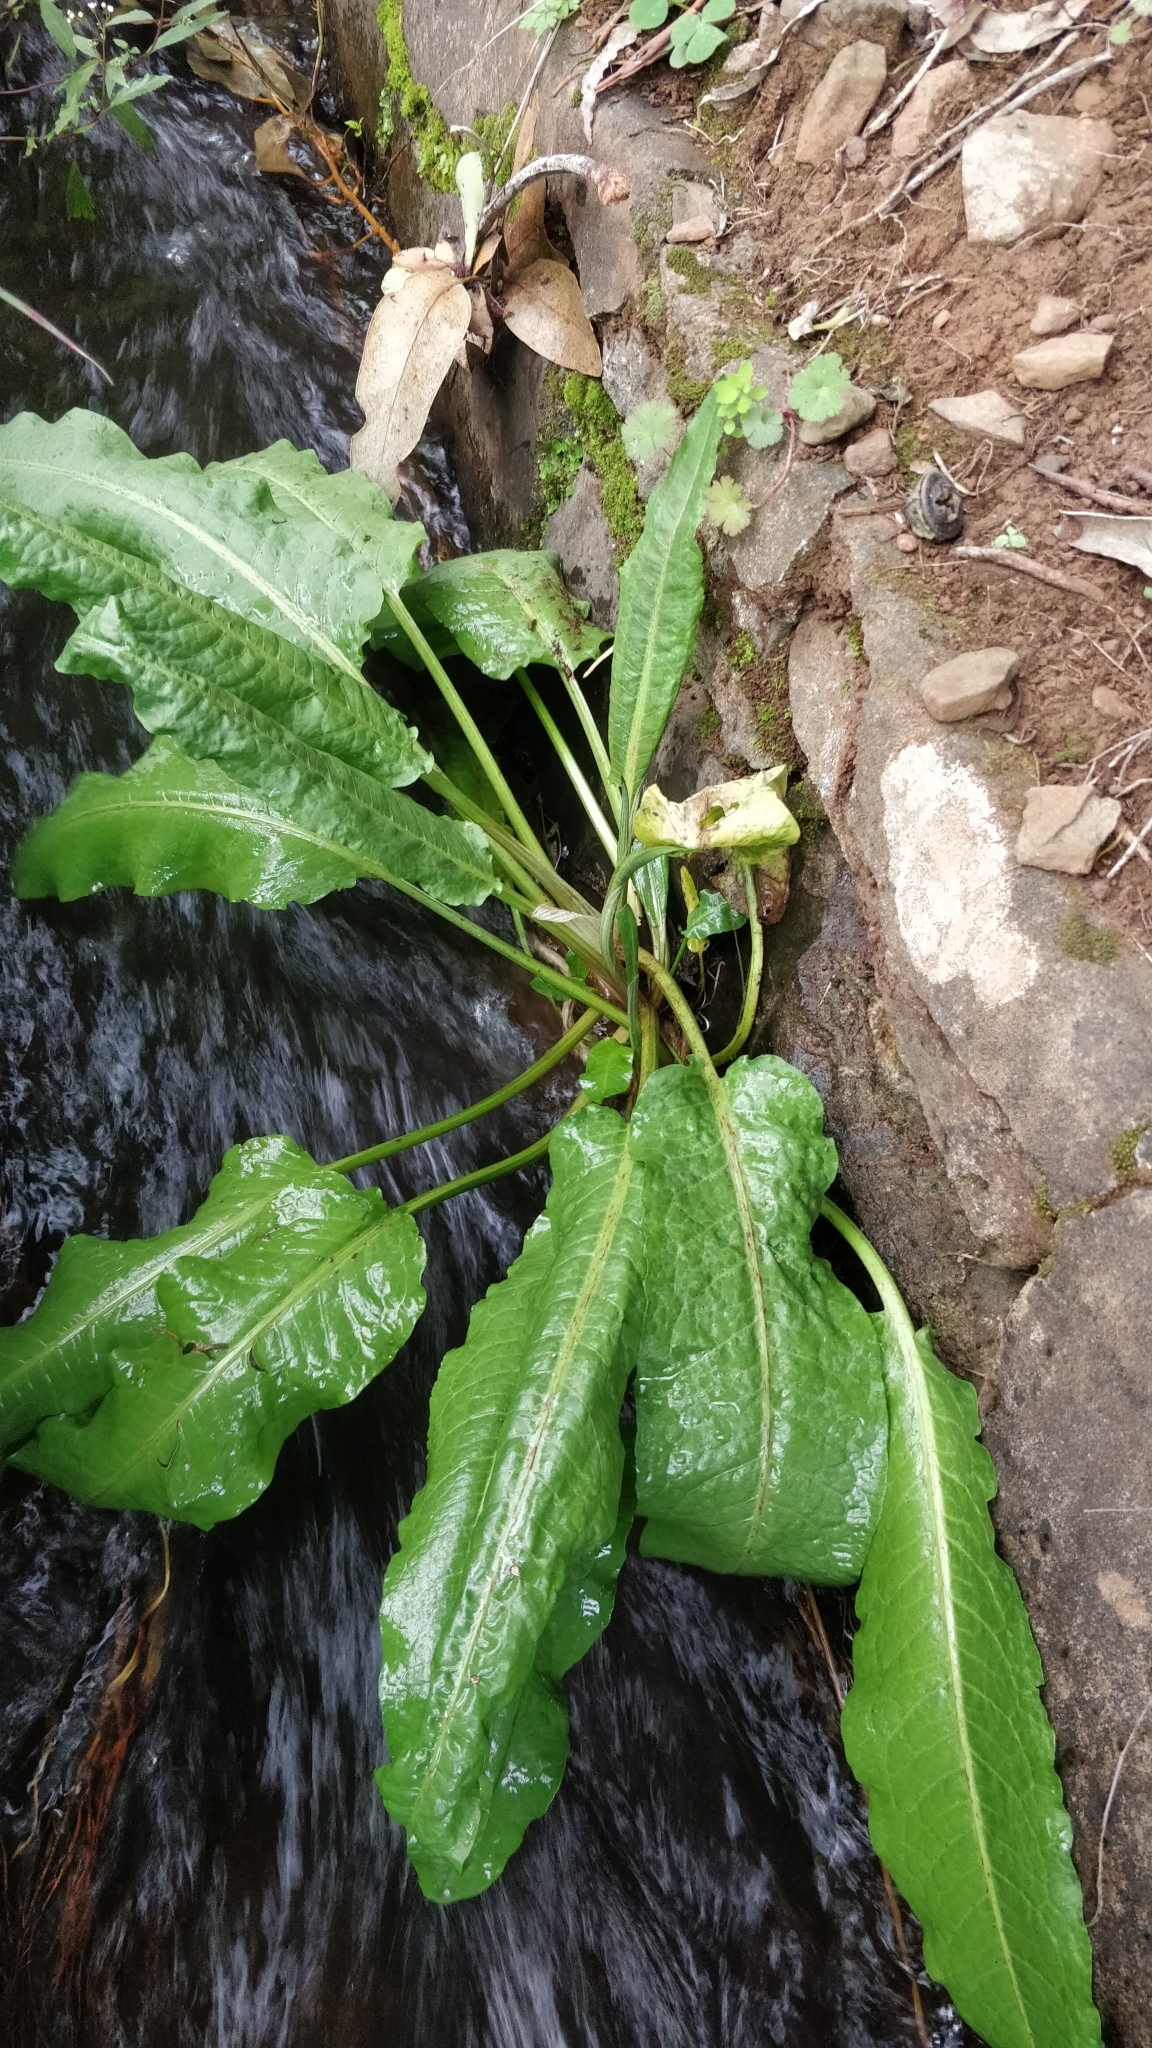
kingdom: Plantae
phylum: Tracheophyta
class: Magnoliopsida
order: Caryophyllales
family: Polygonaceae
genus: Rumex
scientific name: Rumex obtusifolius
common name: Bitter dock
